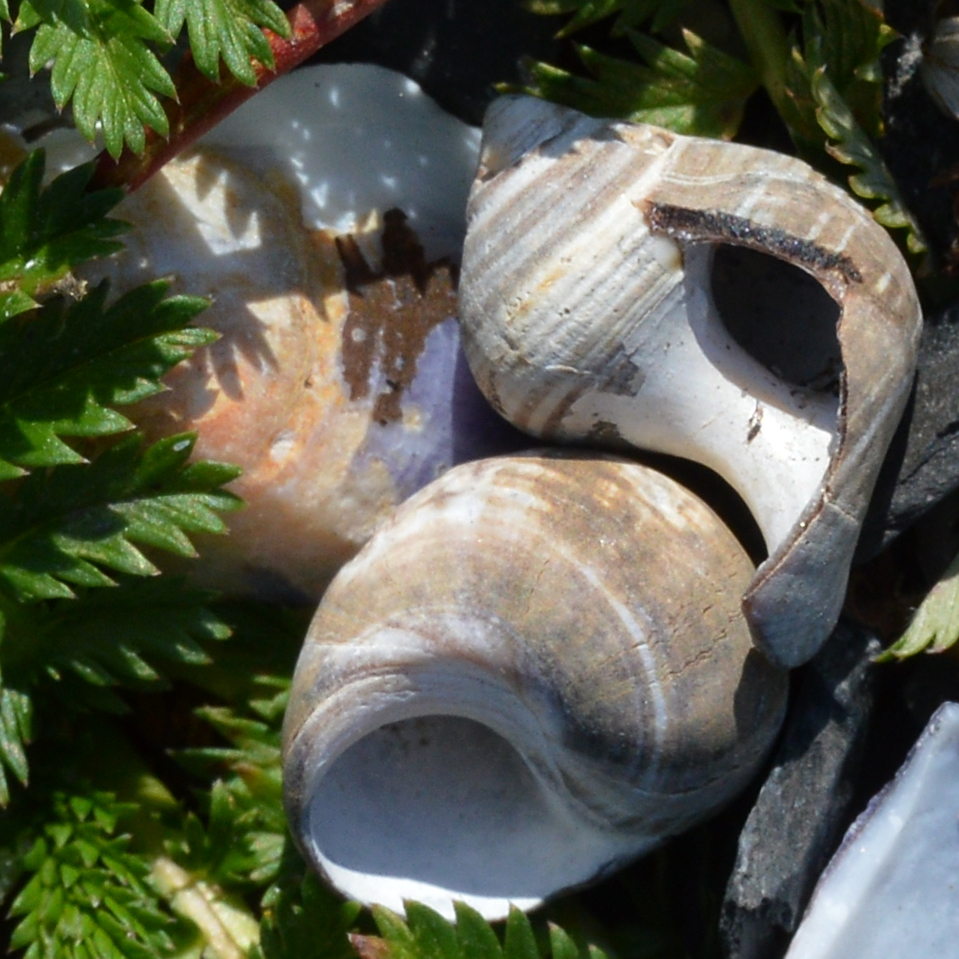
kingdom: Animalia
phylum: Mollusca
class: Gastropoda
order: Littorinimorpha
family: Littorinidae
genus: Littorina
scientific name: Littorina littorea
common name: Common periwinkle
